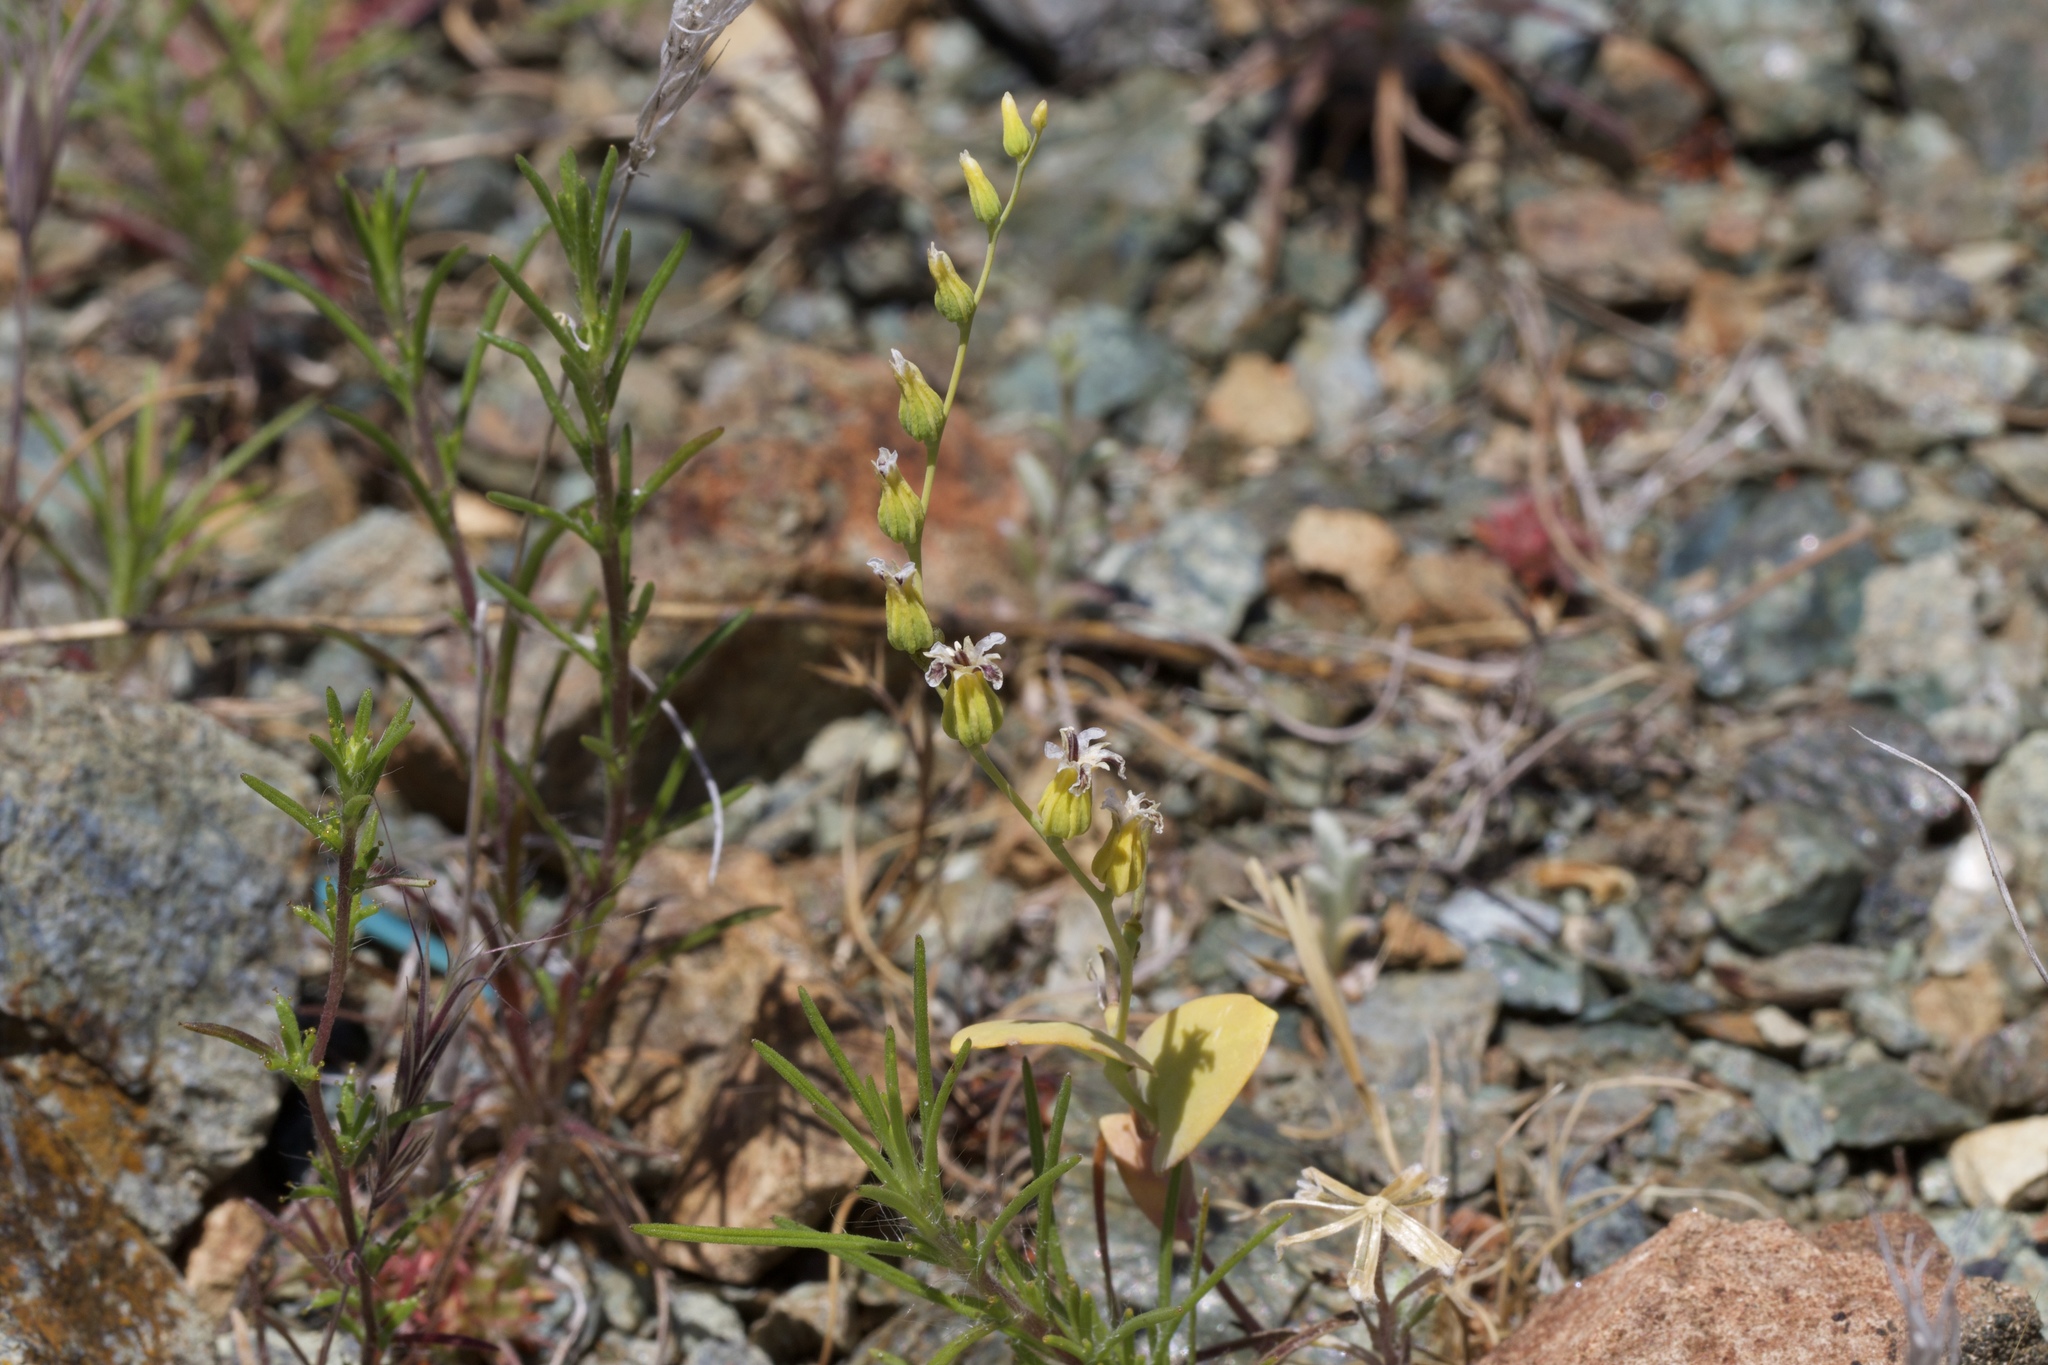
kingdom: Plantae
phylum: Tracheophyta
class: Magnoliopsida
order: Brassicales
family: Brassicaceae
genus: Streptanthus
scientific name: Streptanthus hesperidis
